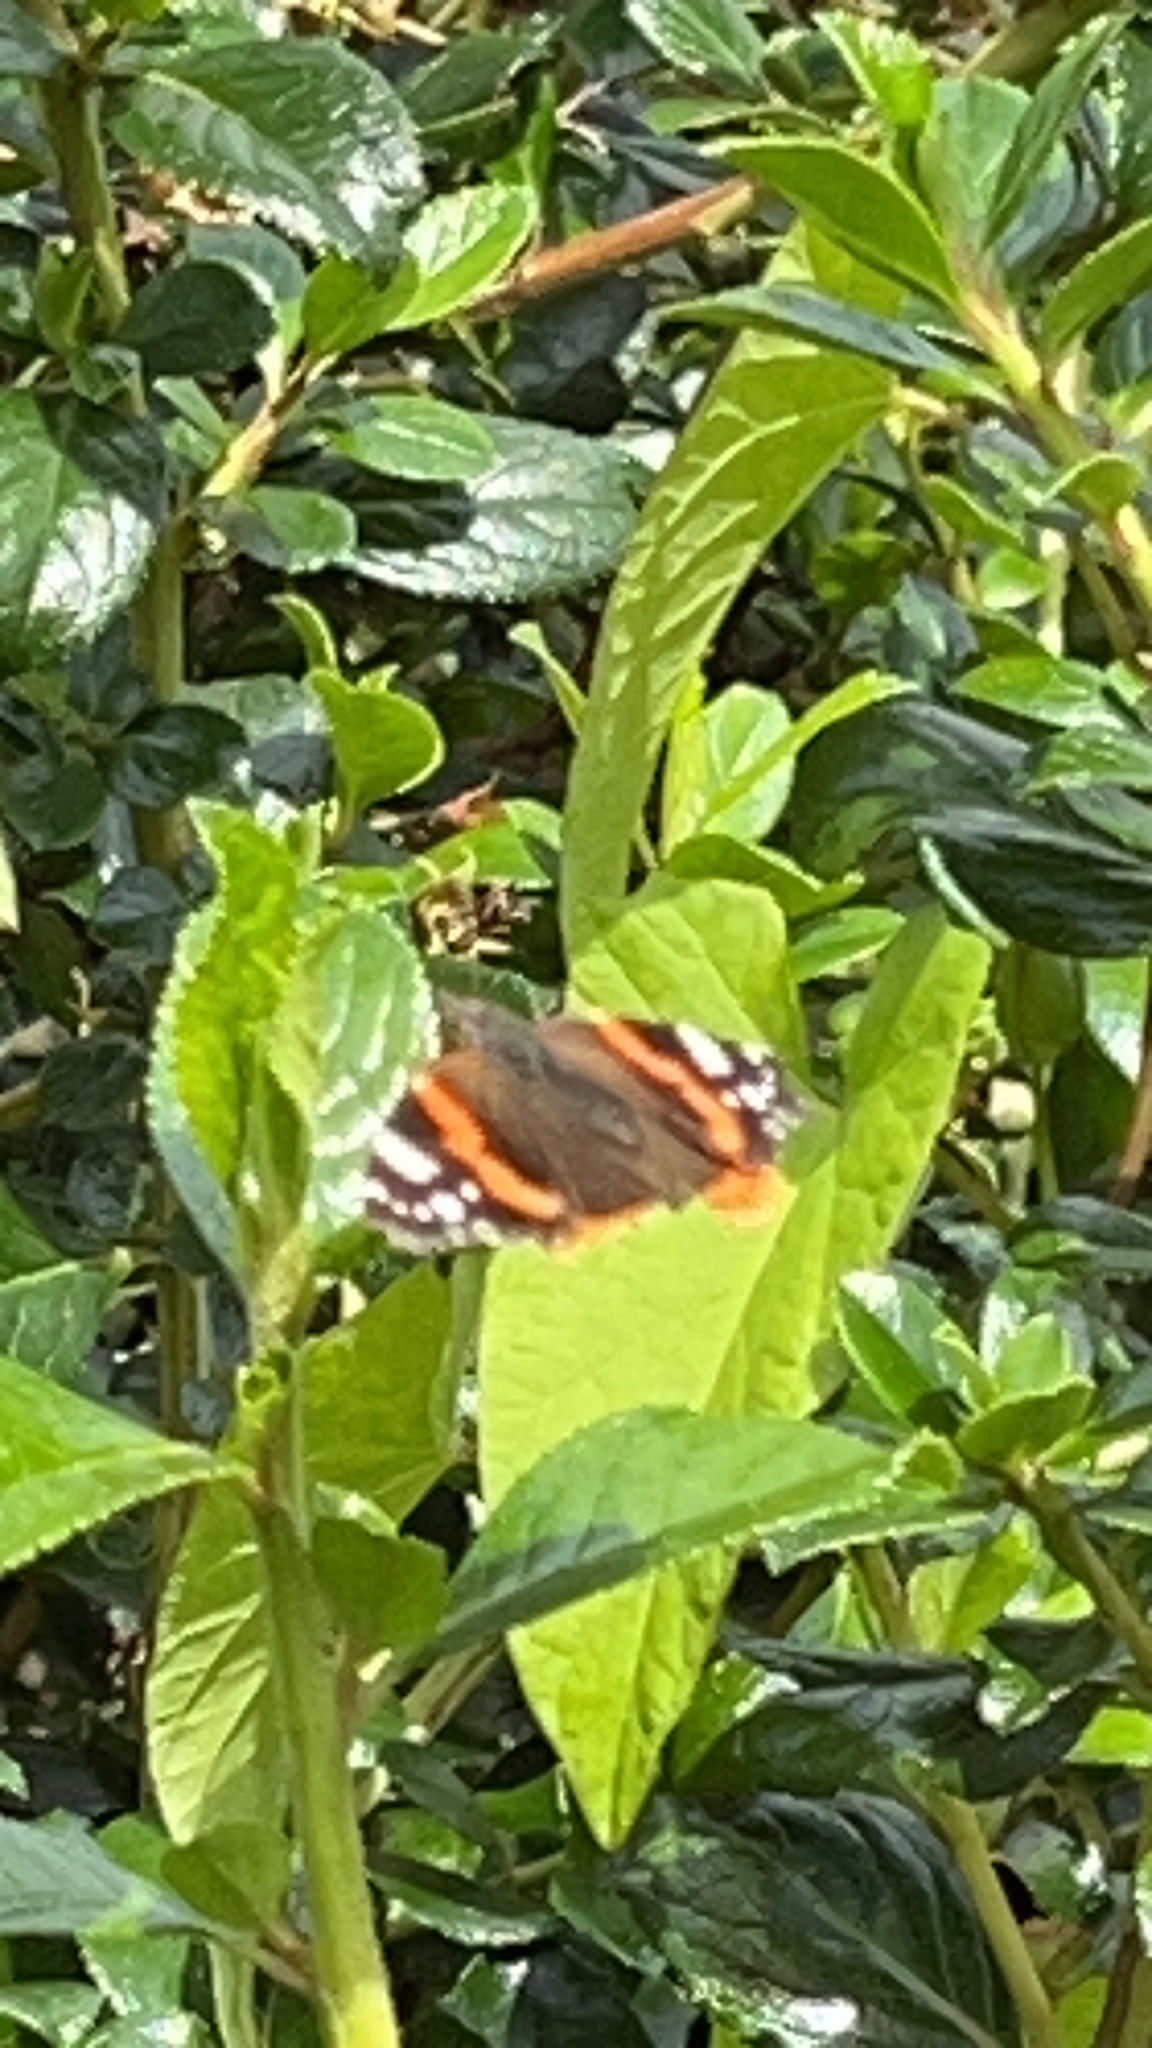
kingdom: Animalia
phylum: Arthropoda
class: Insecta
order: Lepidoptera
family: Nymphalidae
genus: Vanessa
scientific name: Vanessa atalanta
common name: Red admiral
